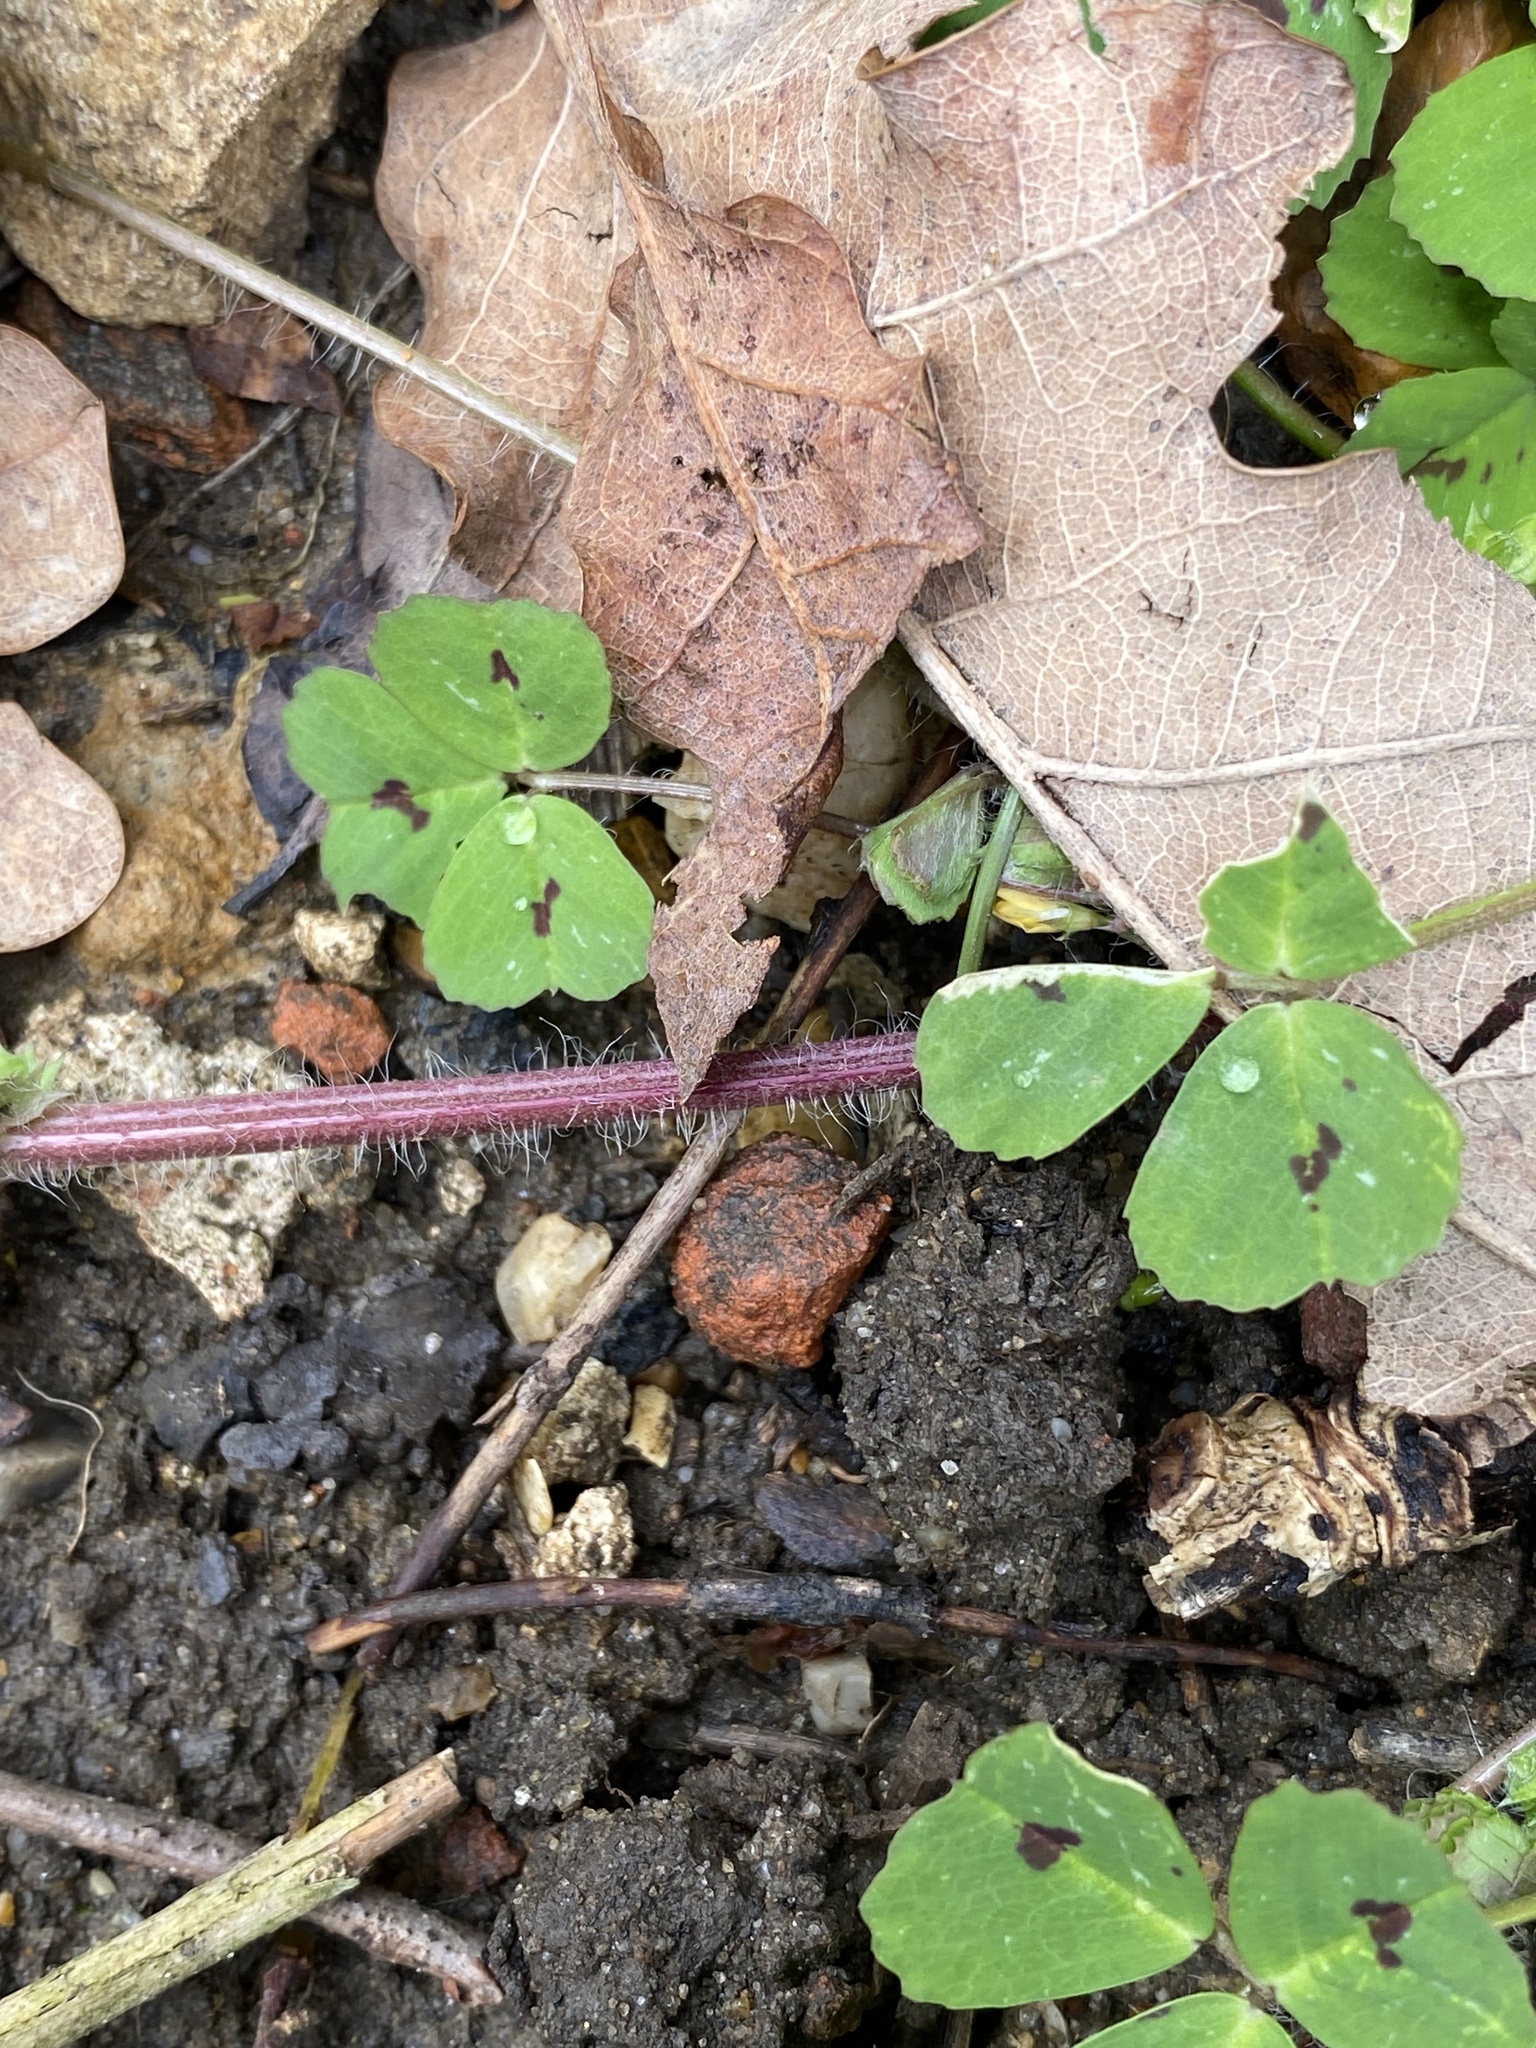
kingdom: Plantae
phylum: Tracheophyta
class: Magnoliopsida
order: Fabales
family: Fabaceae
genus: Medicago
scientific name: Medicago arabica
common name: Spotted medick
